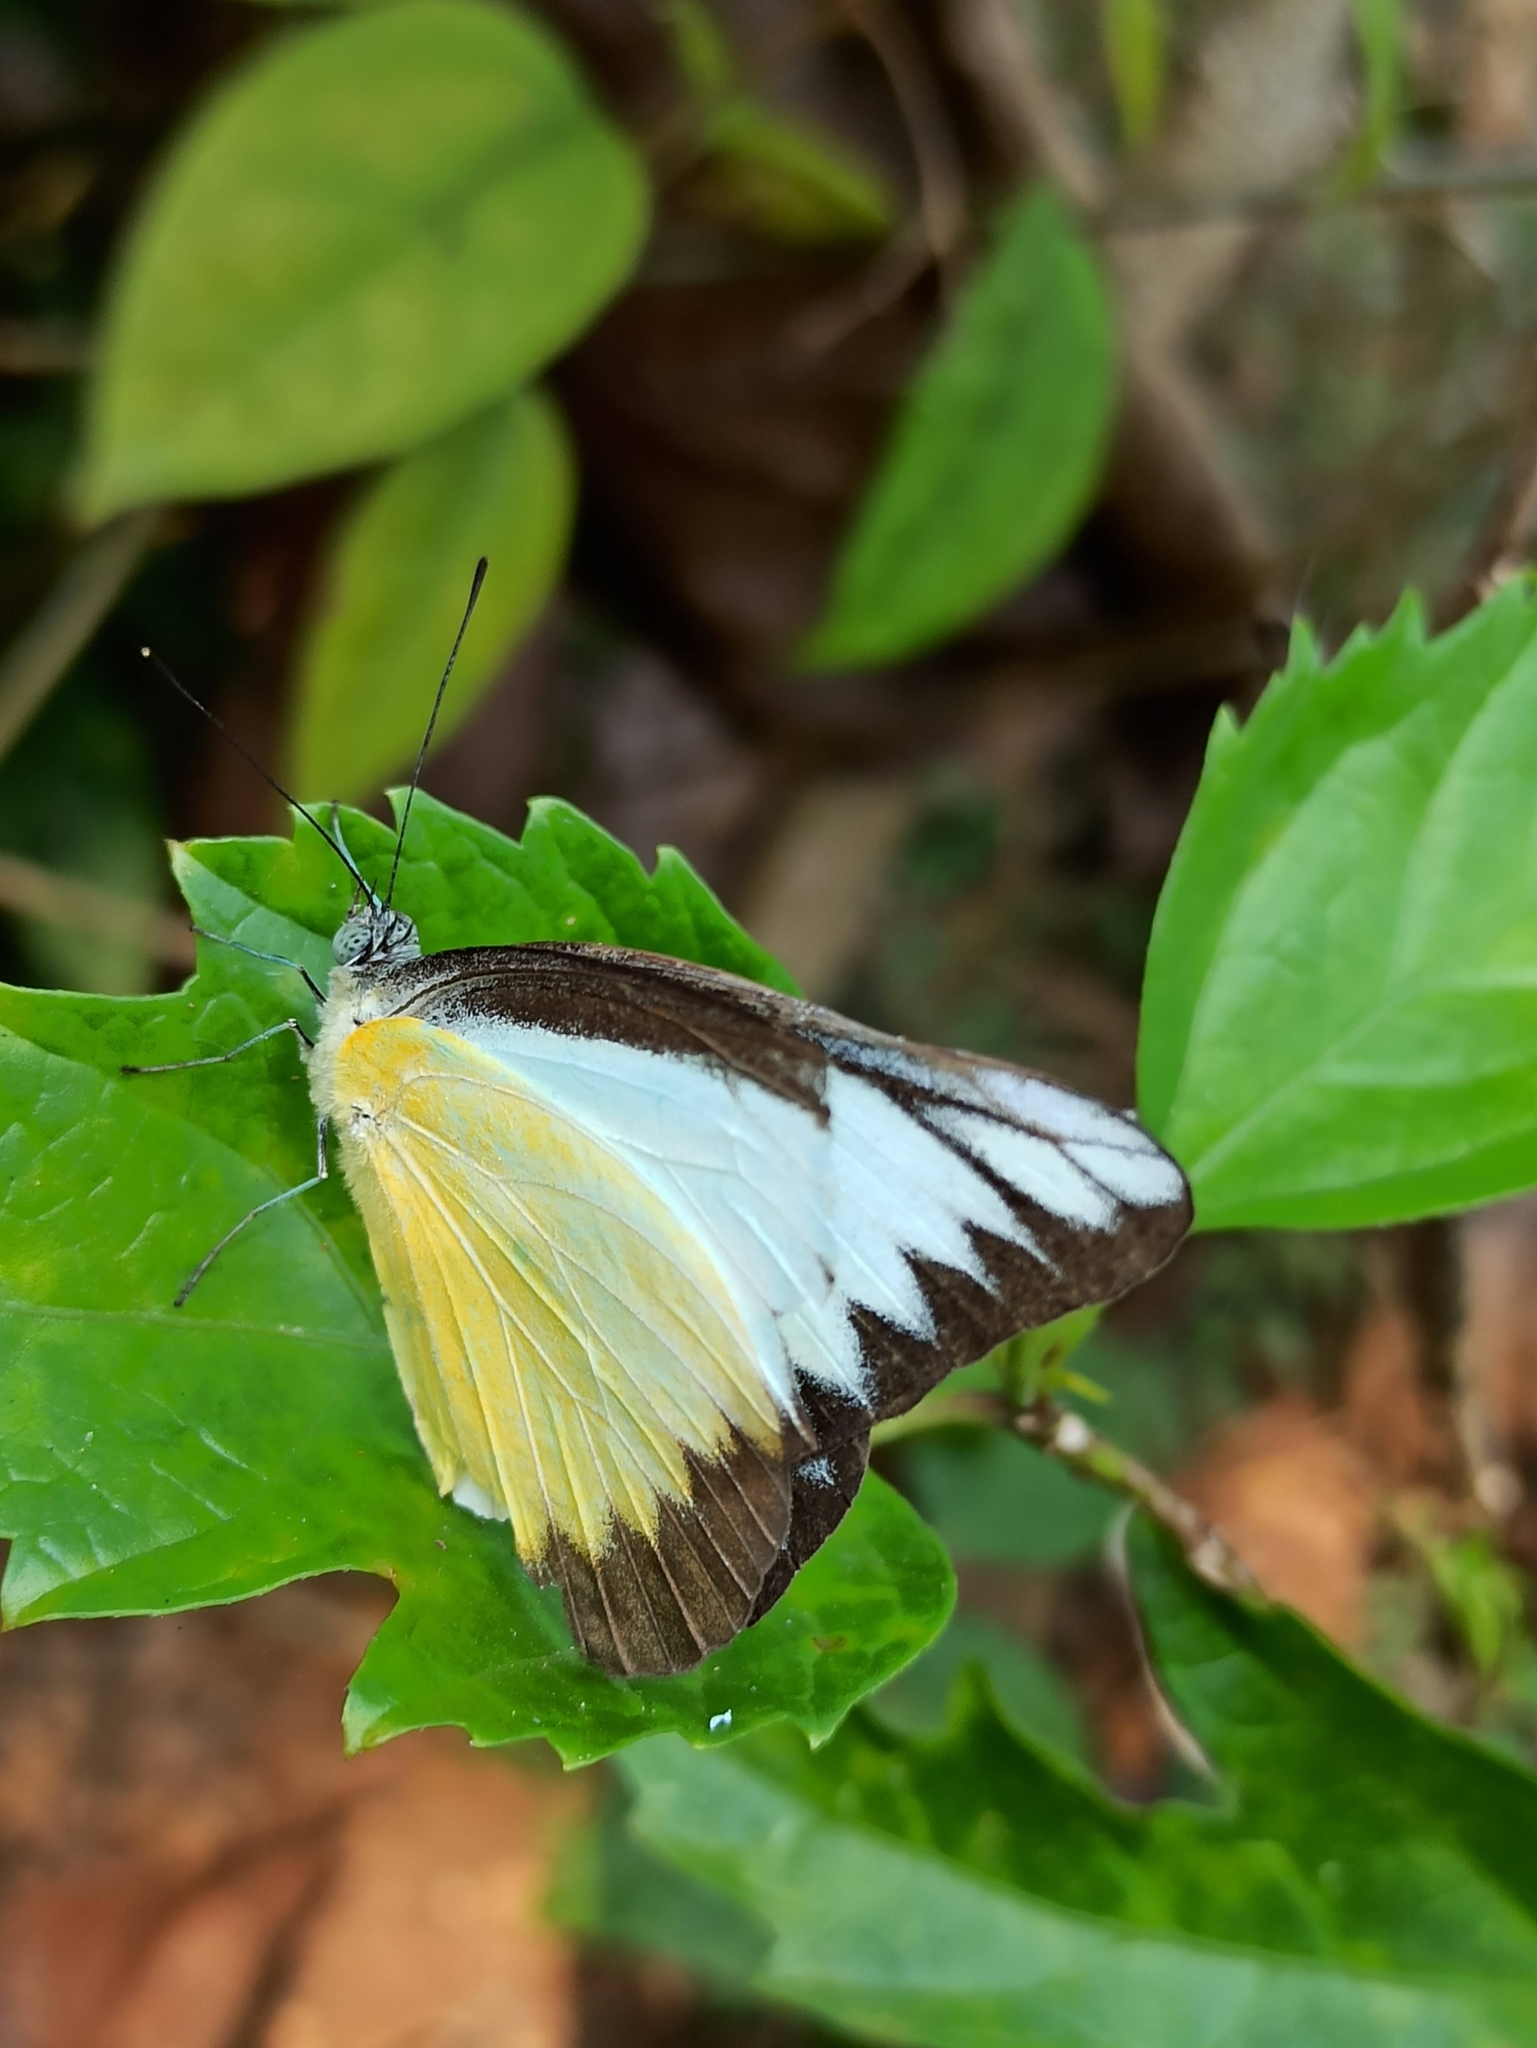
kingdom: Animalia
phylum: Arthropoda
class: Insecta
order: Lepidoptera
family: Pieridae
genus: Appias
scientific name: Appias lyncida
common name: Chocolate albatross
